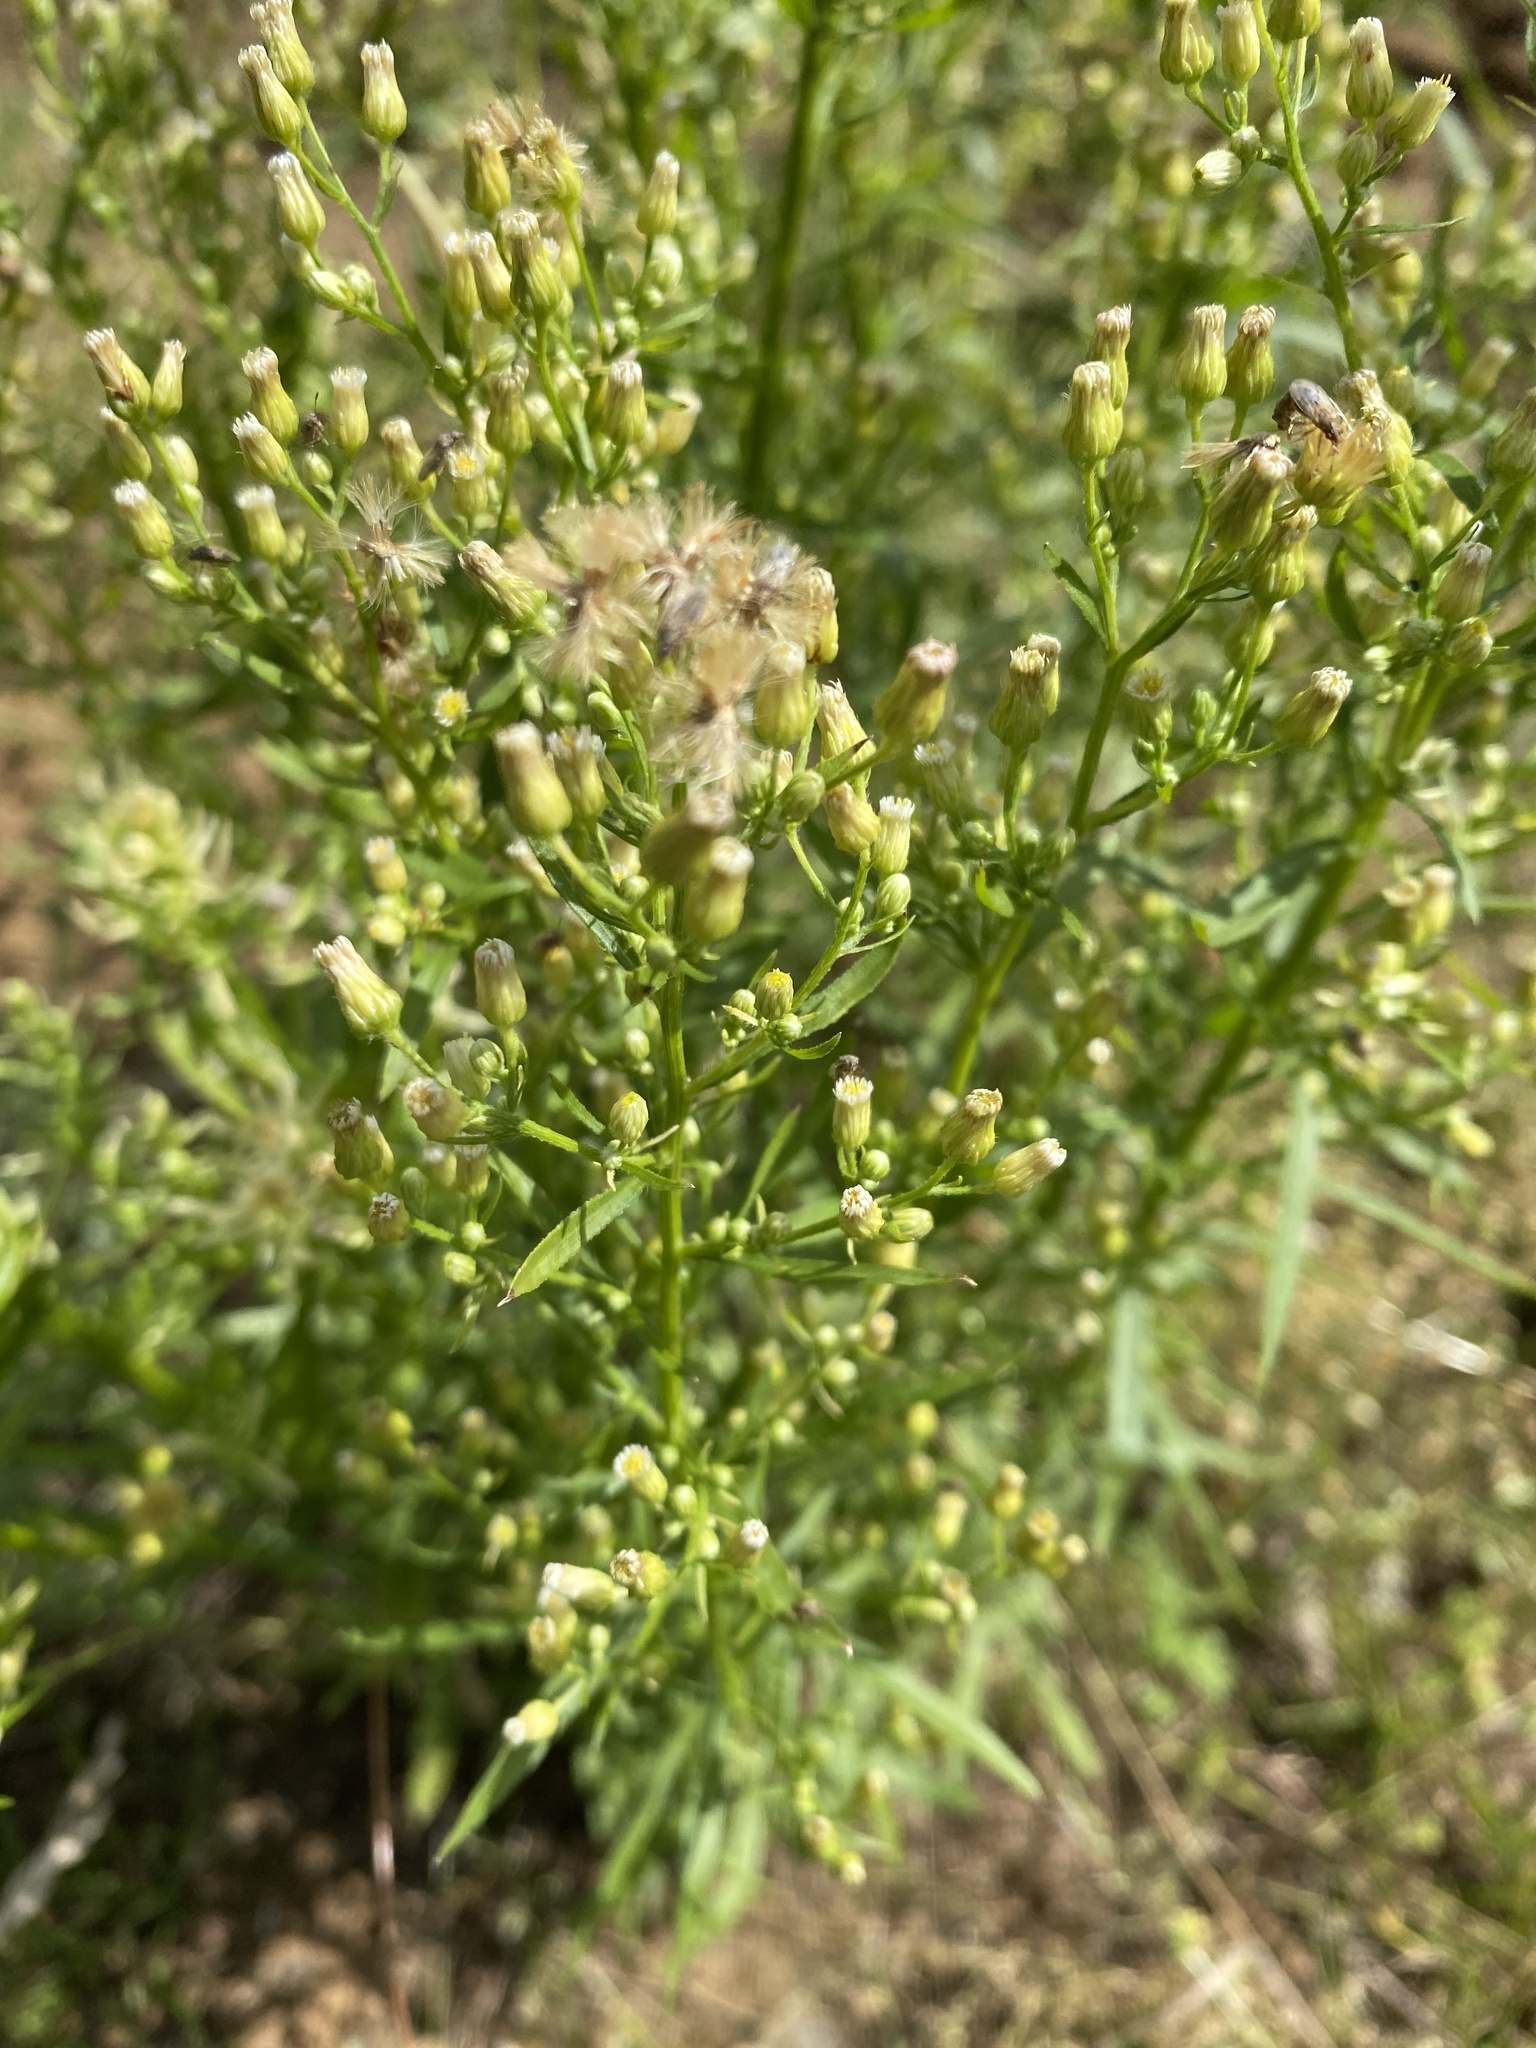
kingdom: Plantae
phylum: Tracheophyta
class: Magnoliopsida
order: Asterales
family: Asteraceae
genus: Erigeron
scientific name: Erigeron canadensis
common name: Canadian fleabane
